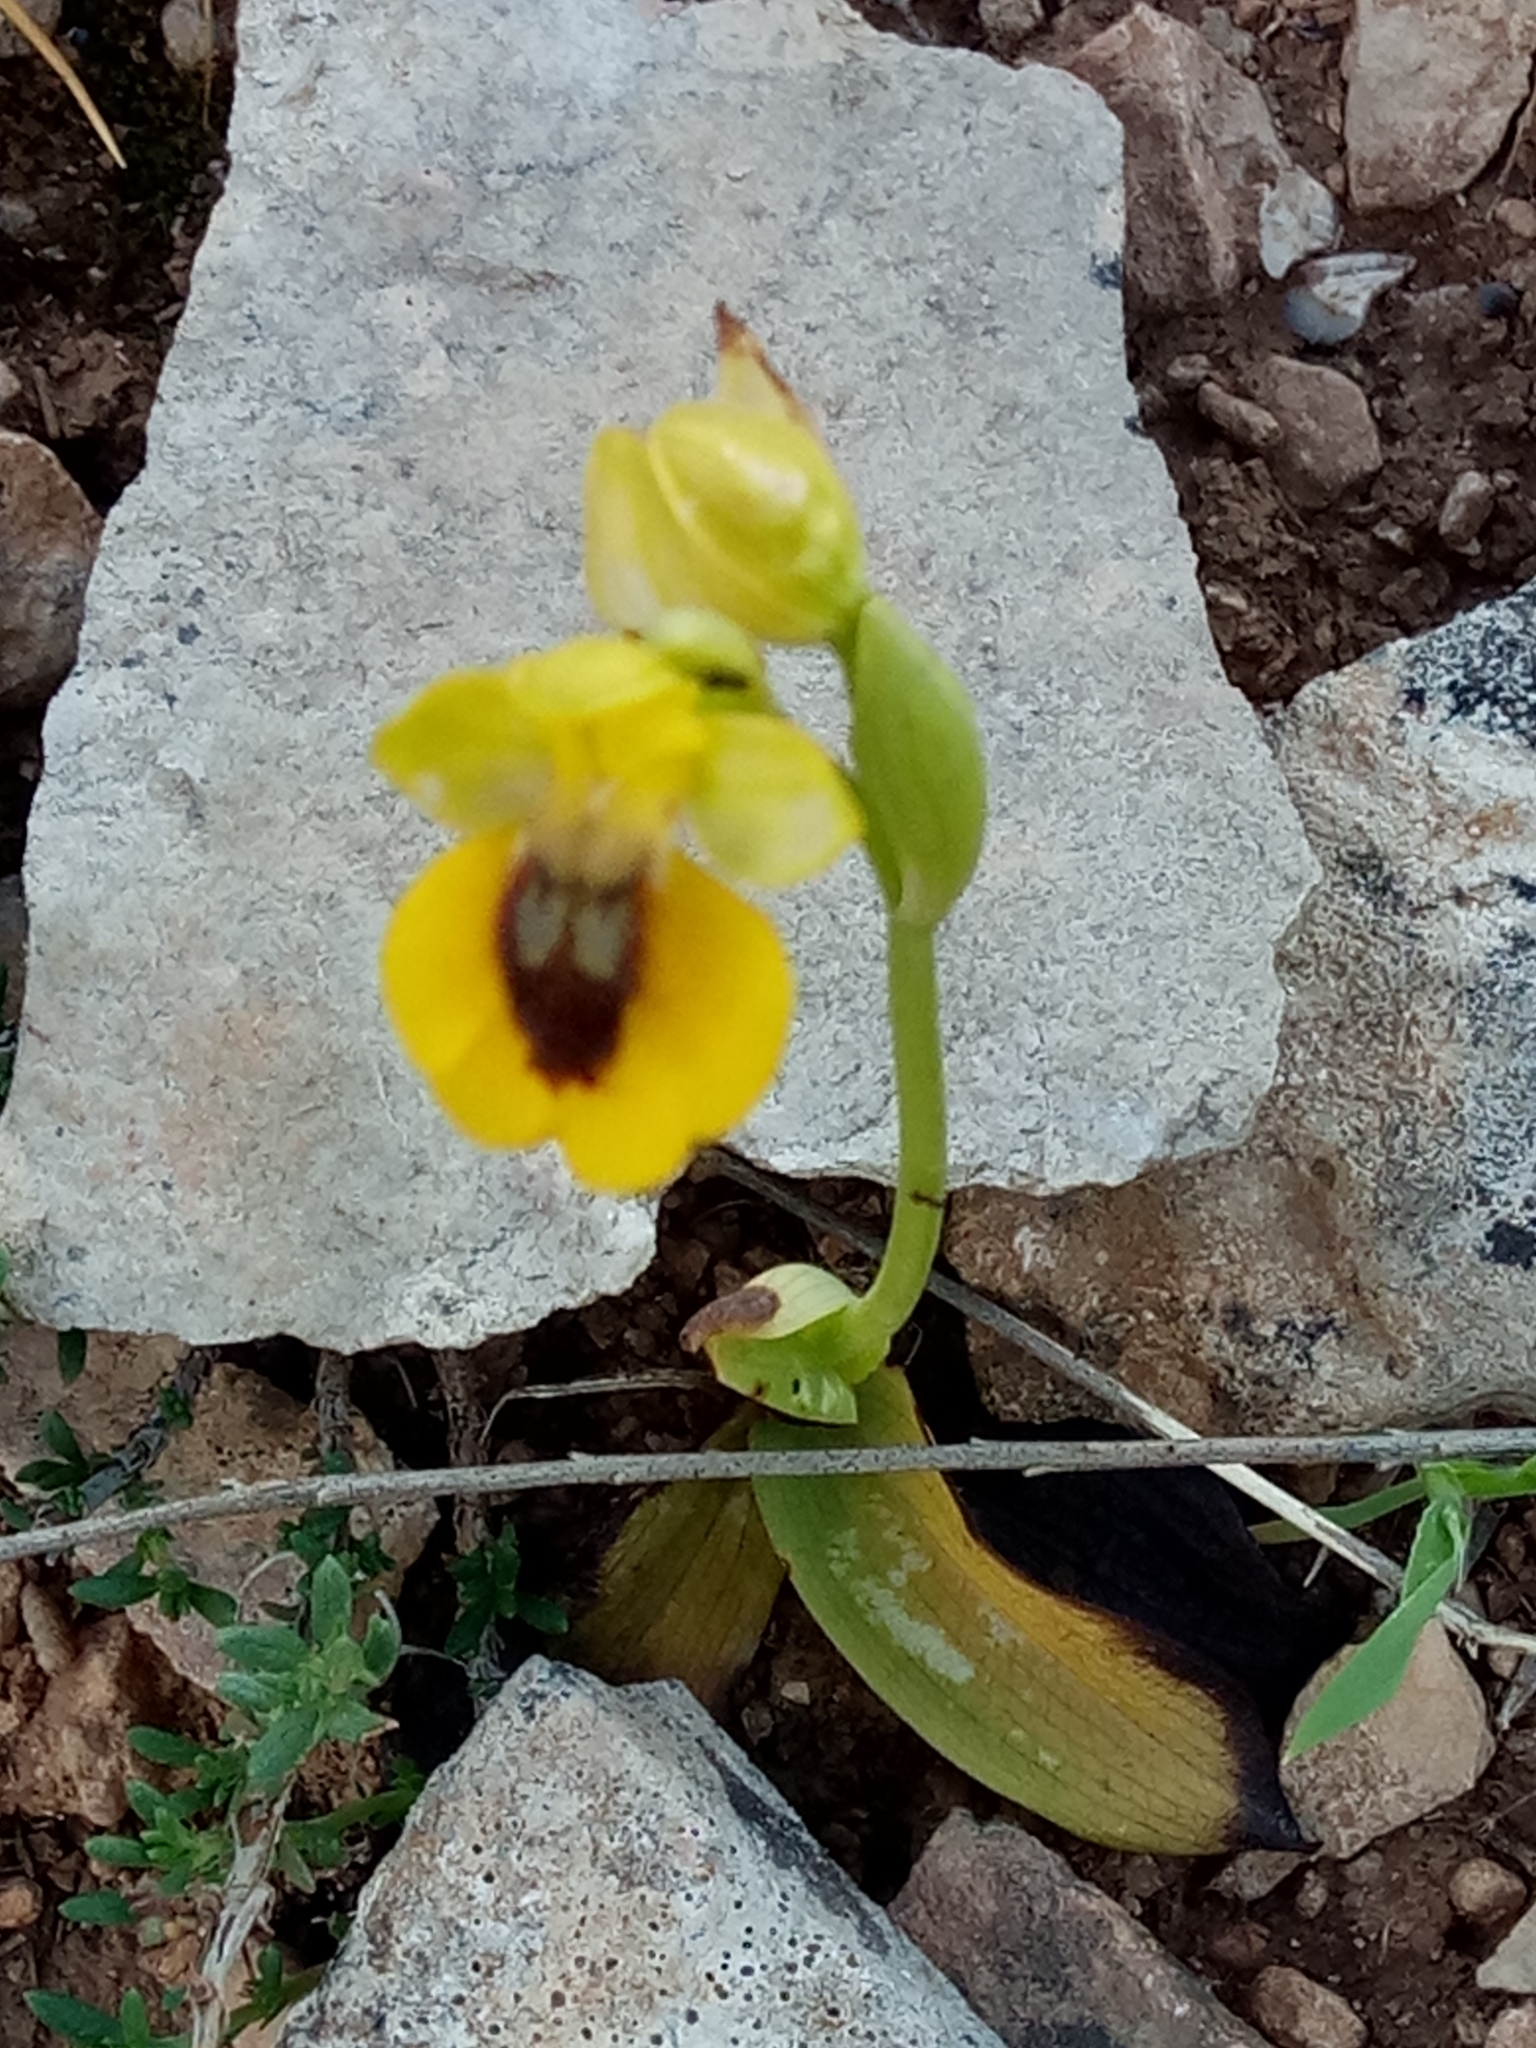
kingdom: Plantae
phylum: Tracheophyta
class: Liliopsida
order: Asparagales
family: Orchidaceae
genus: Ophrys
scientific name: Ophrys lutea
